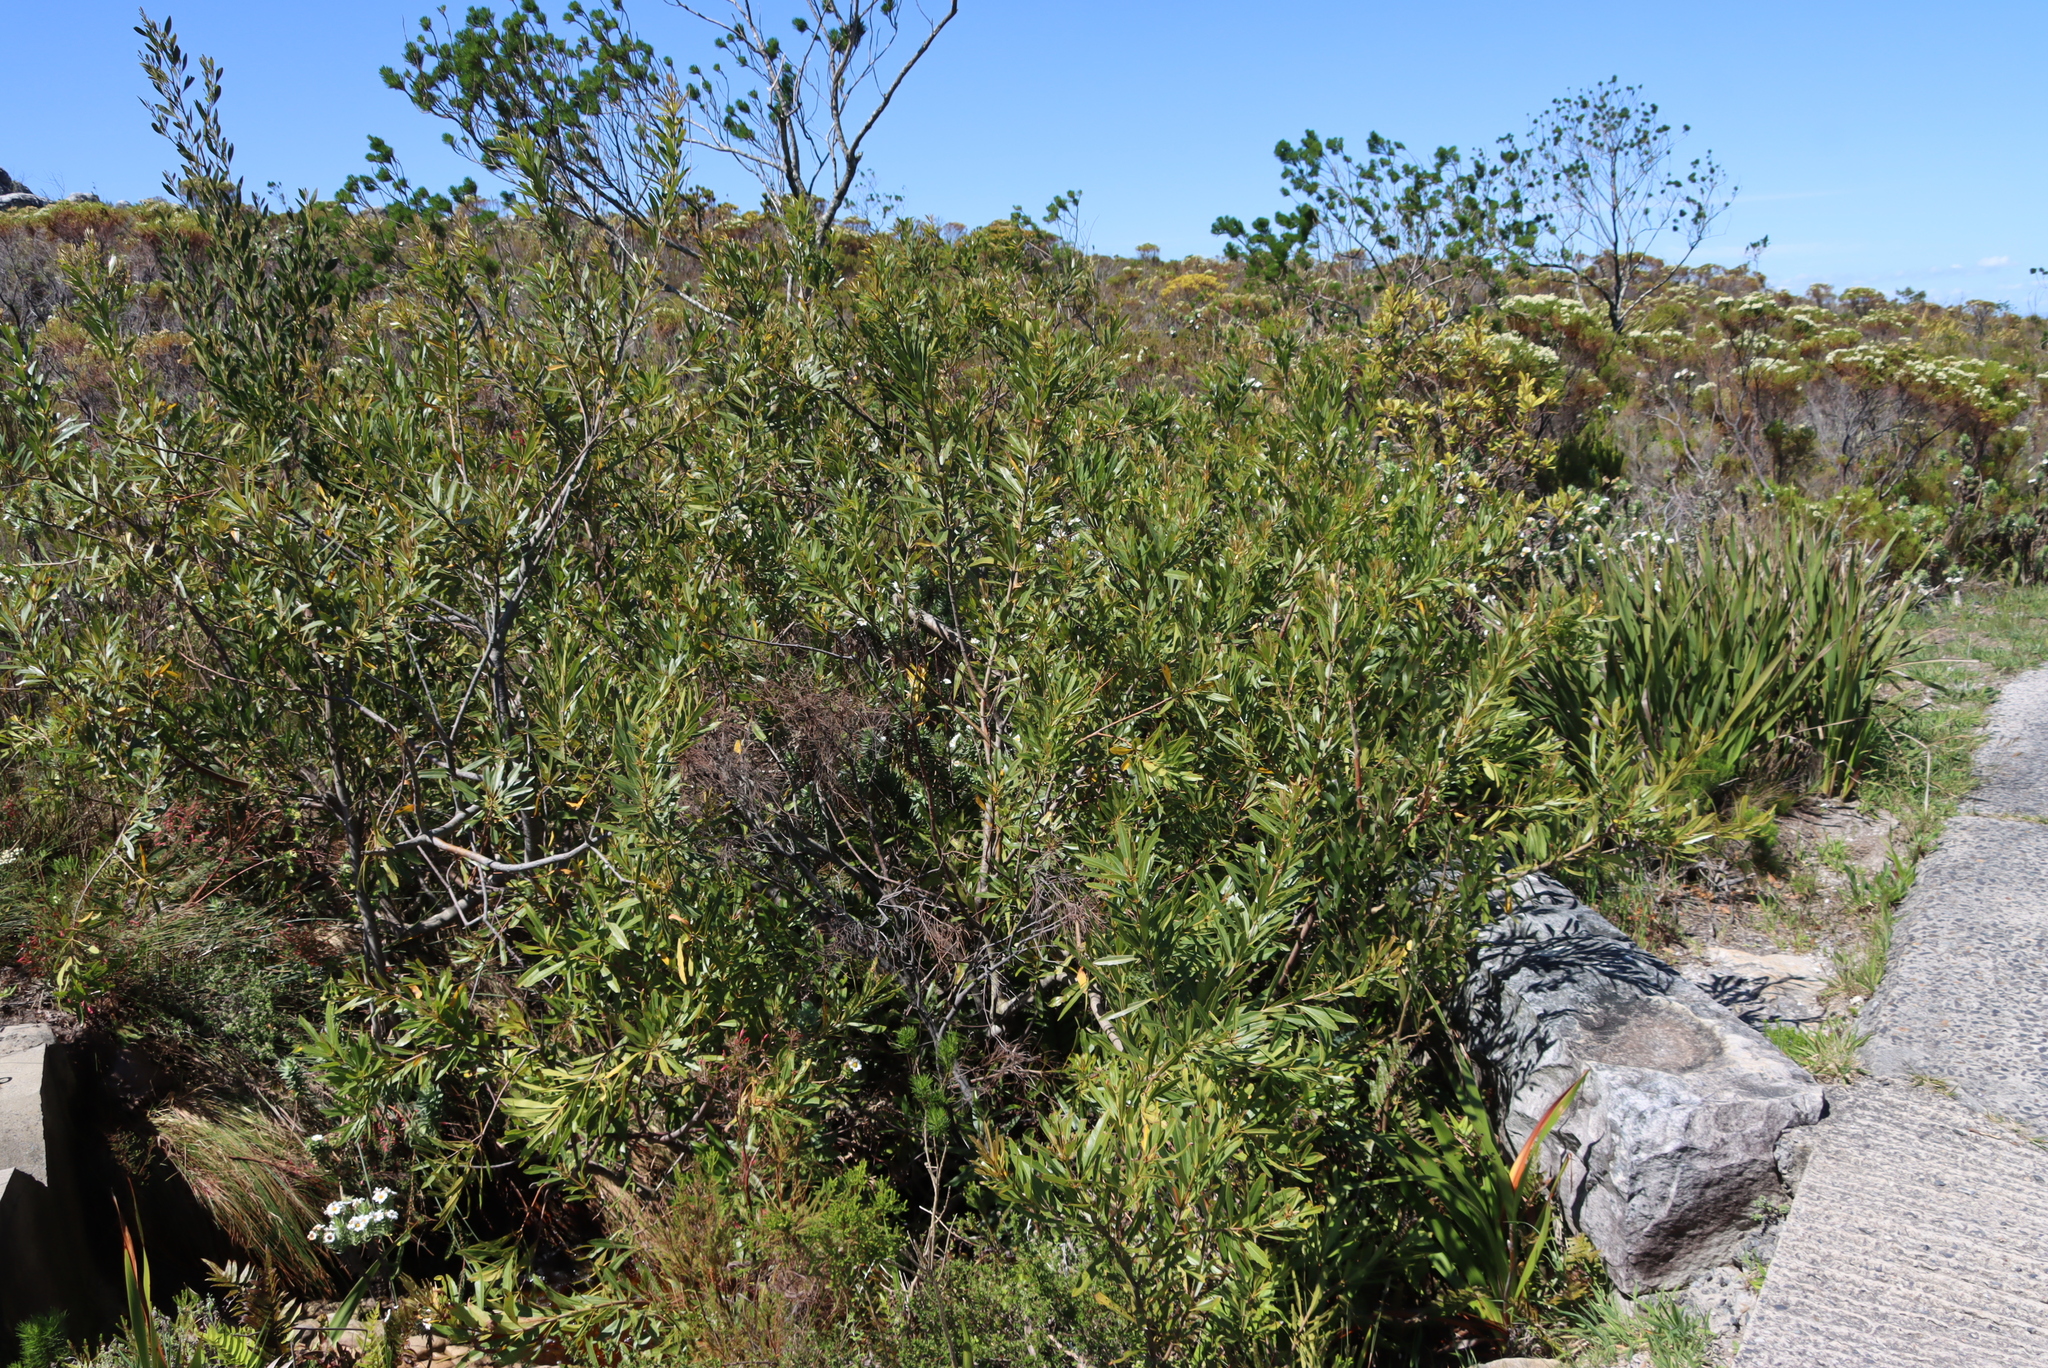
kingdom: Plantae
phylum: Tracheophyta
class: Magnoliopsida
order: Proteales
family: Proteaceae
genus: Brabejum
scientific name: Brabejum stellatifolium
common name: Wild almond
